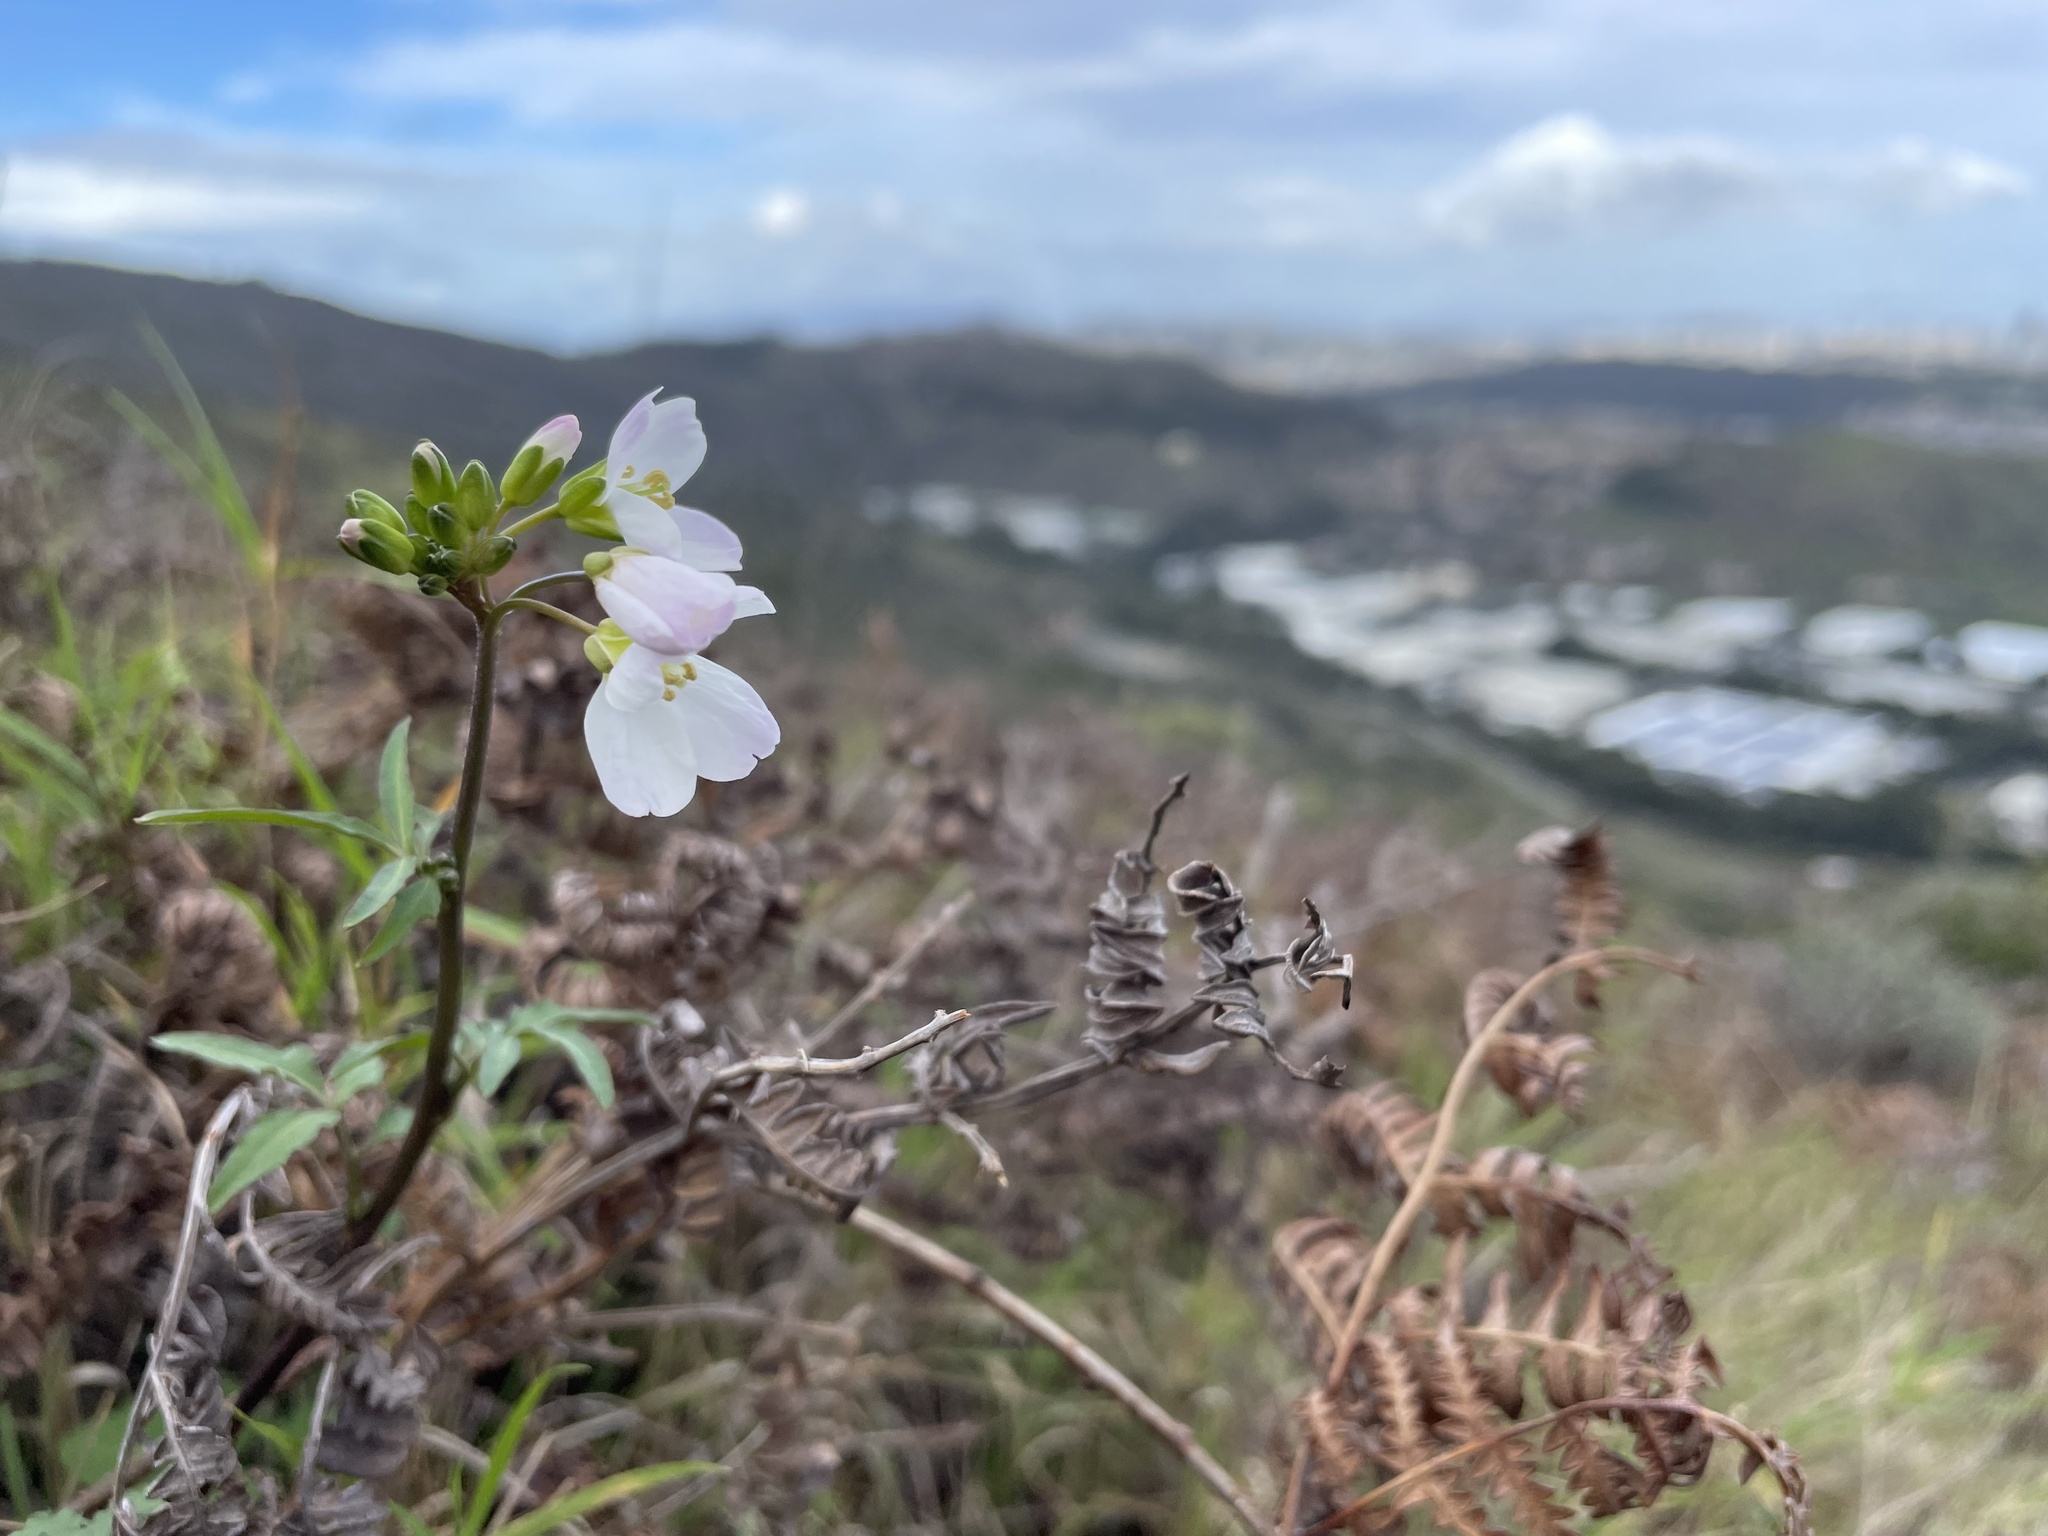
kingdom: Plantae
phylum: Tracheophyta
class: Magnoliopsida
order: Brassicales
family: Brassicaceae
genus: Cardamine
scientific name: Cardamine californica
